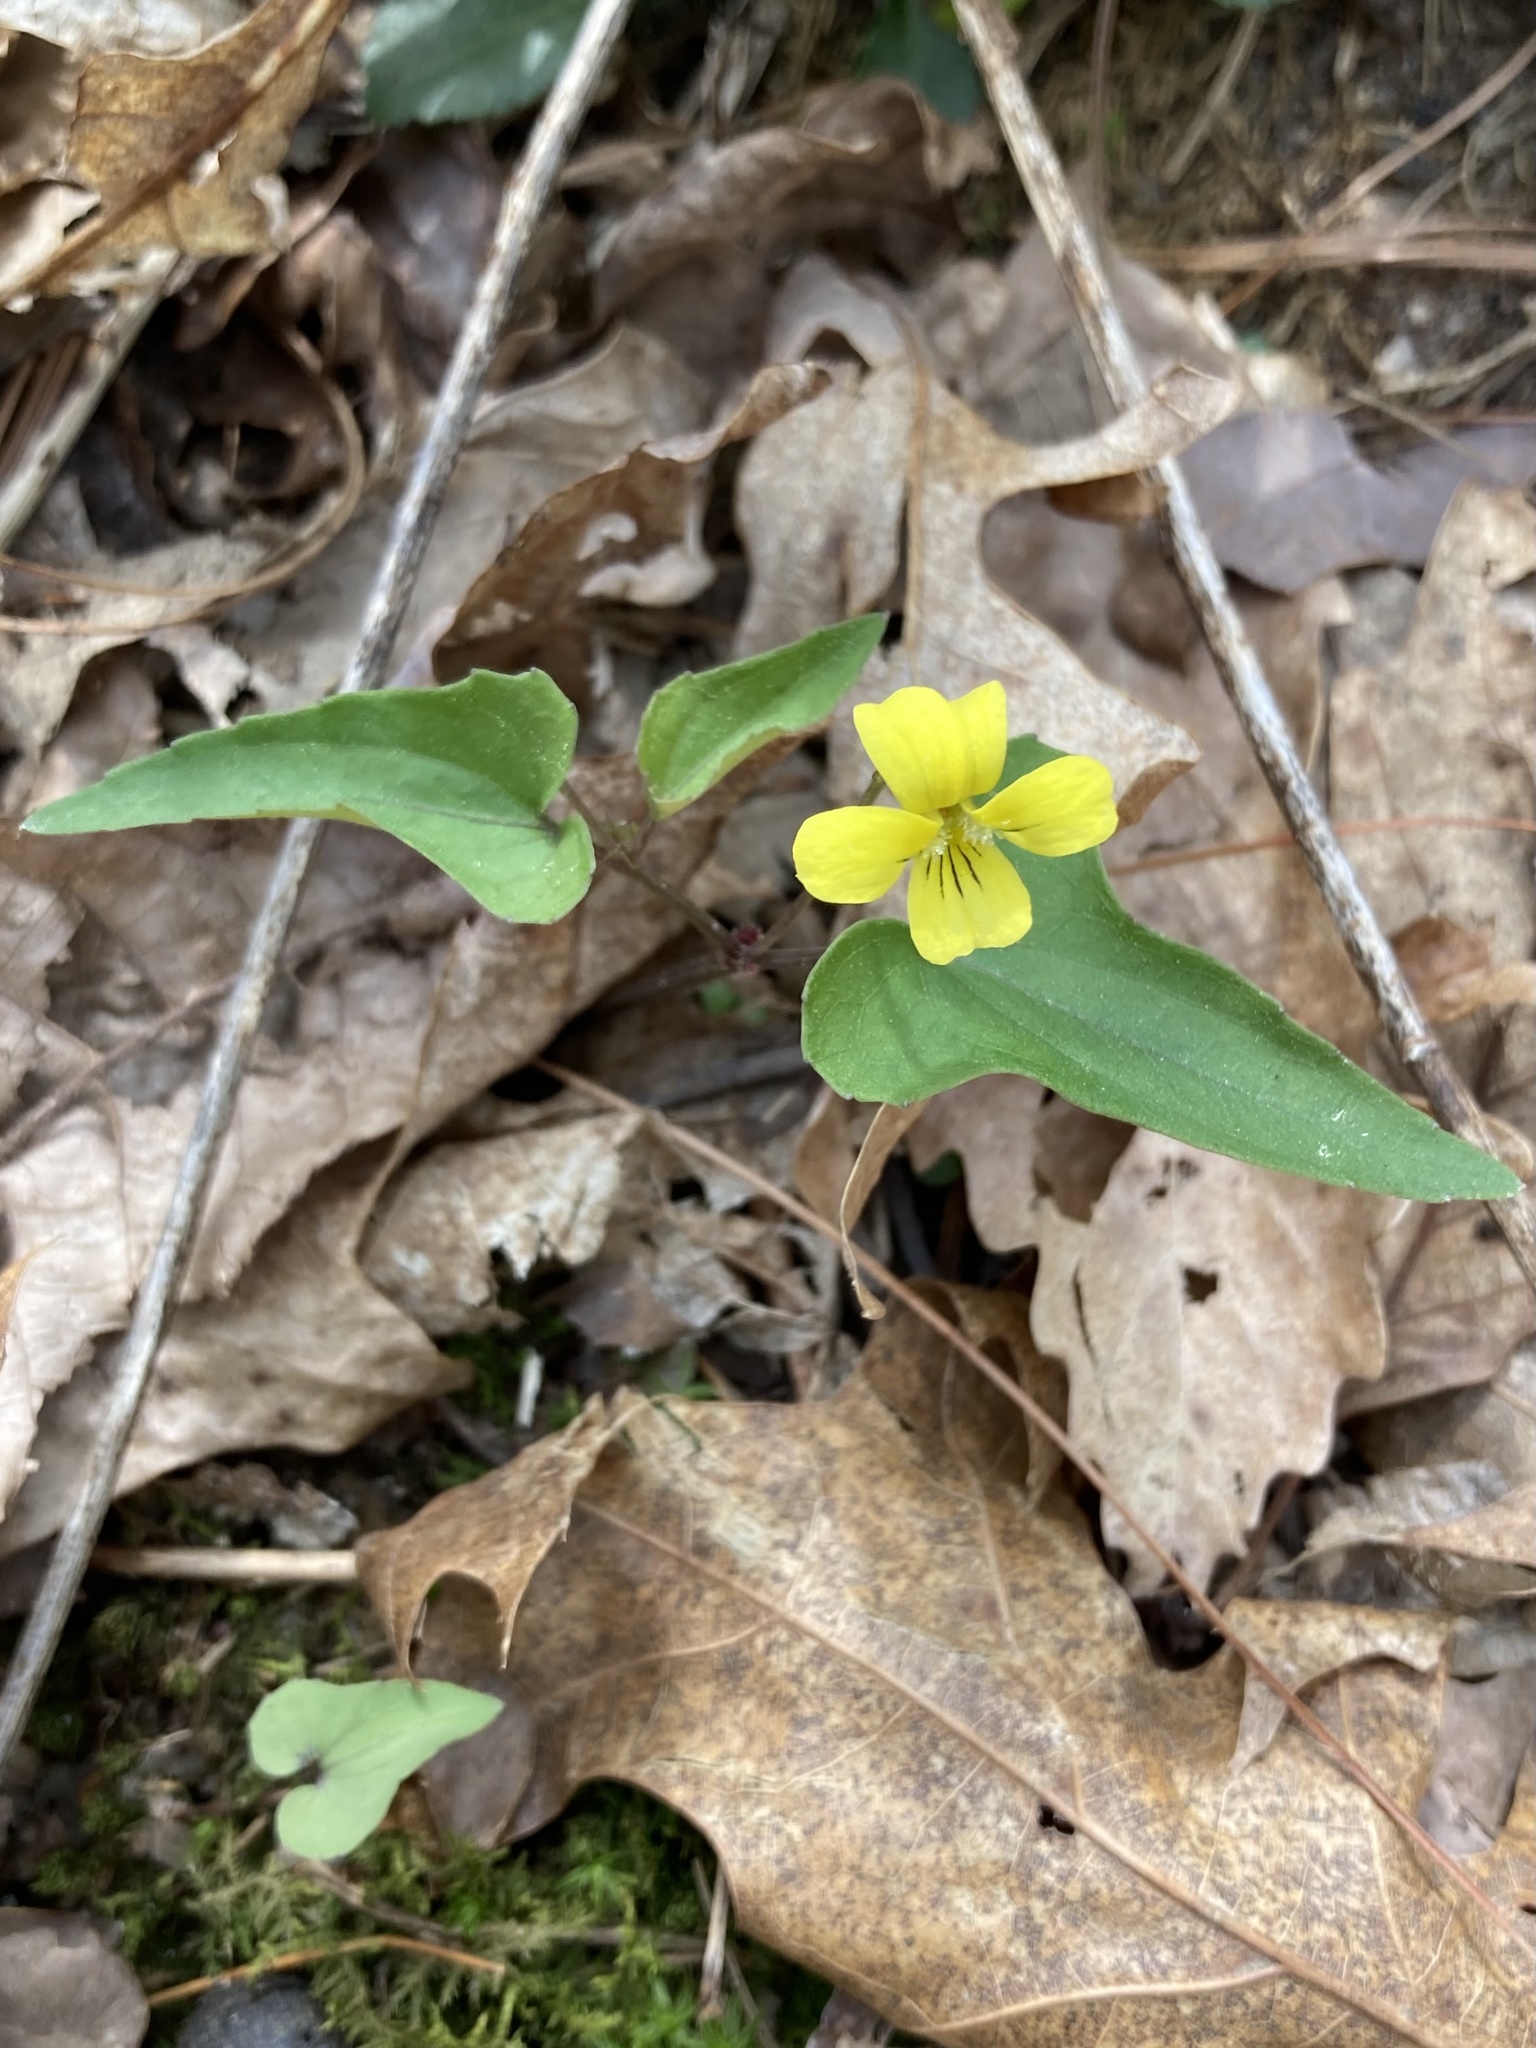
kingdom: Plantae
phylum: Tracheophyta
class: Magnoliopsida
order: Malpighiales
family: Violaceae
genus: Viola
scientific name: Viola hastata
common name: Spear-leaf violet
